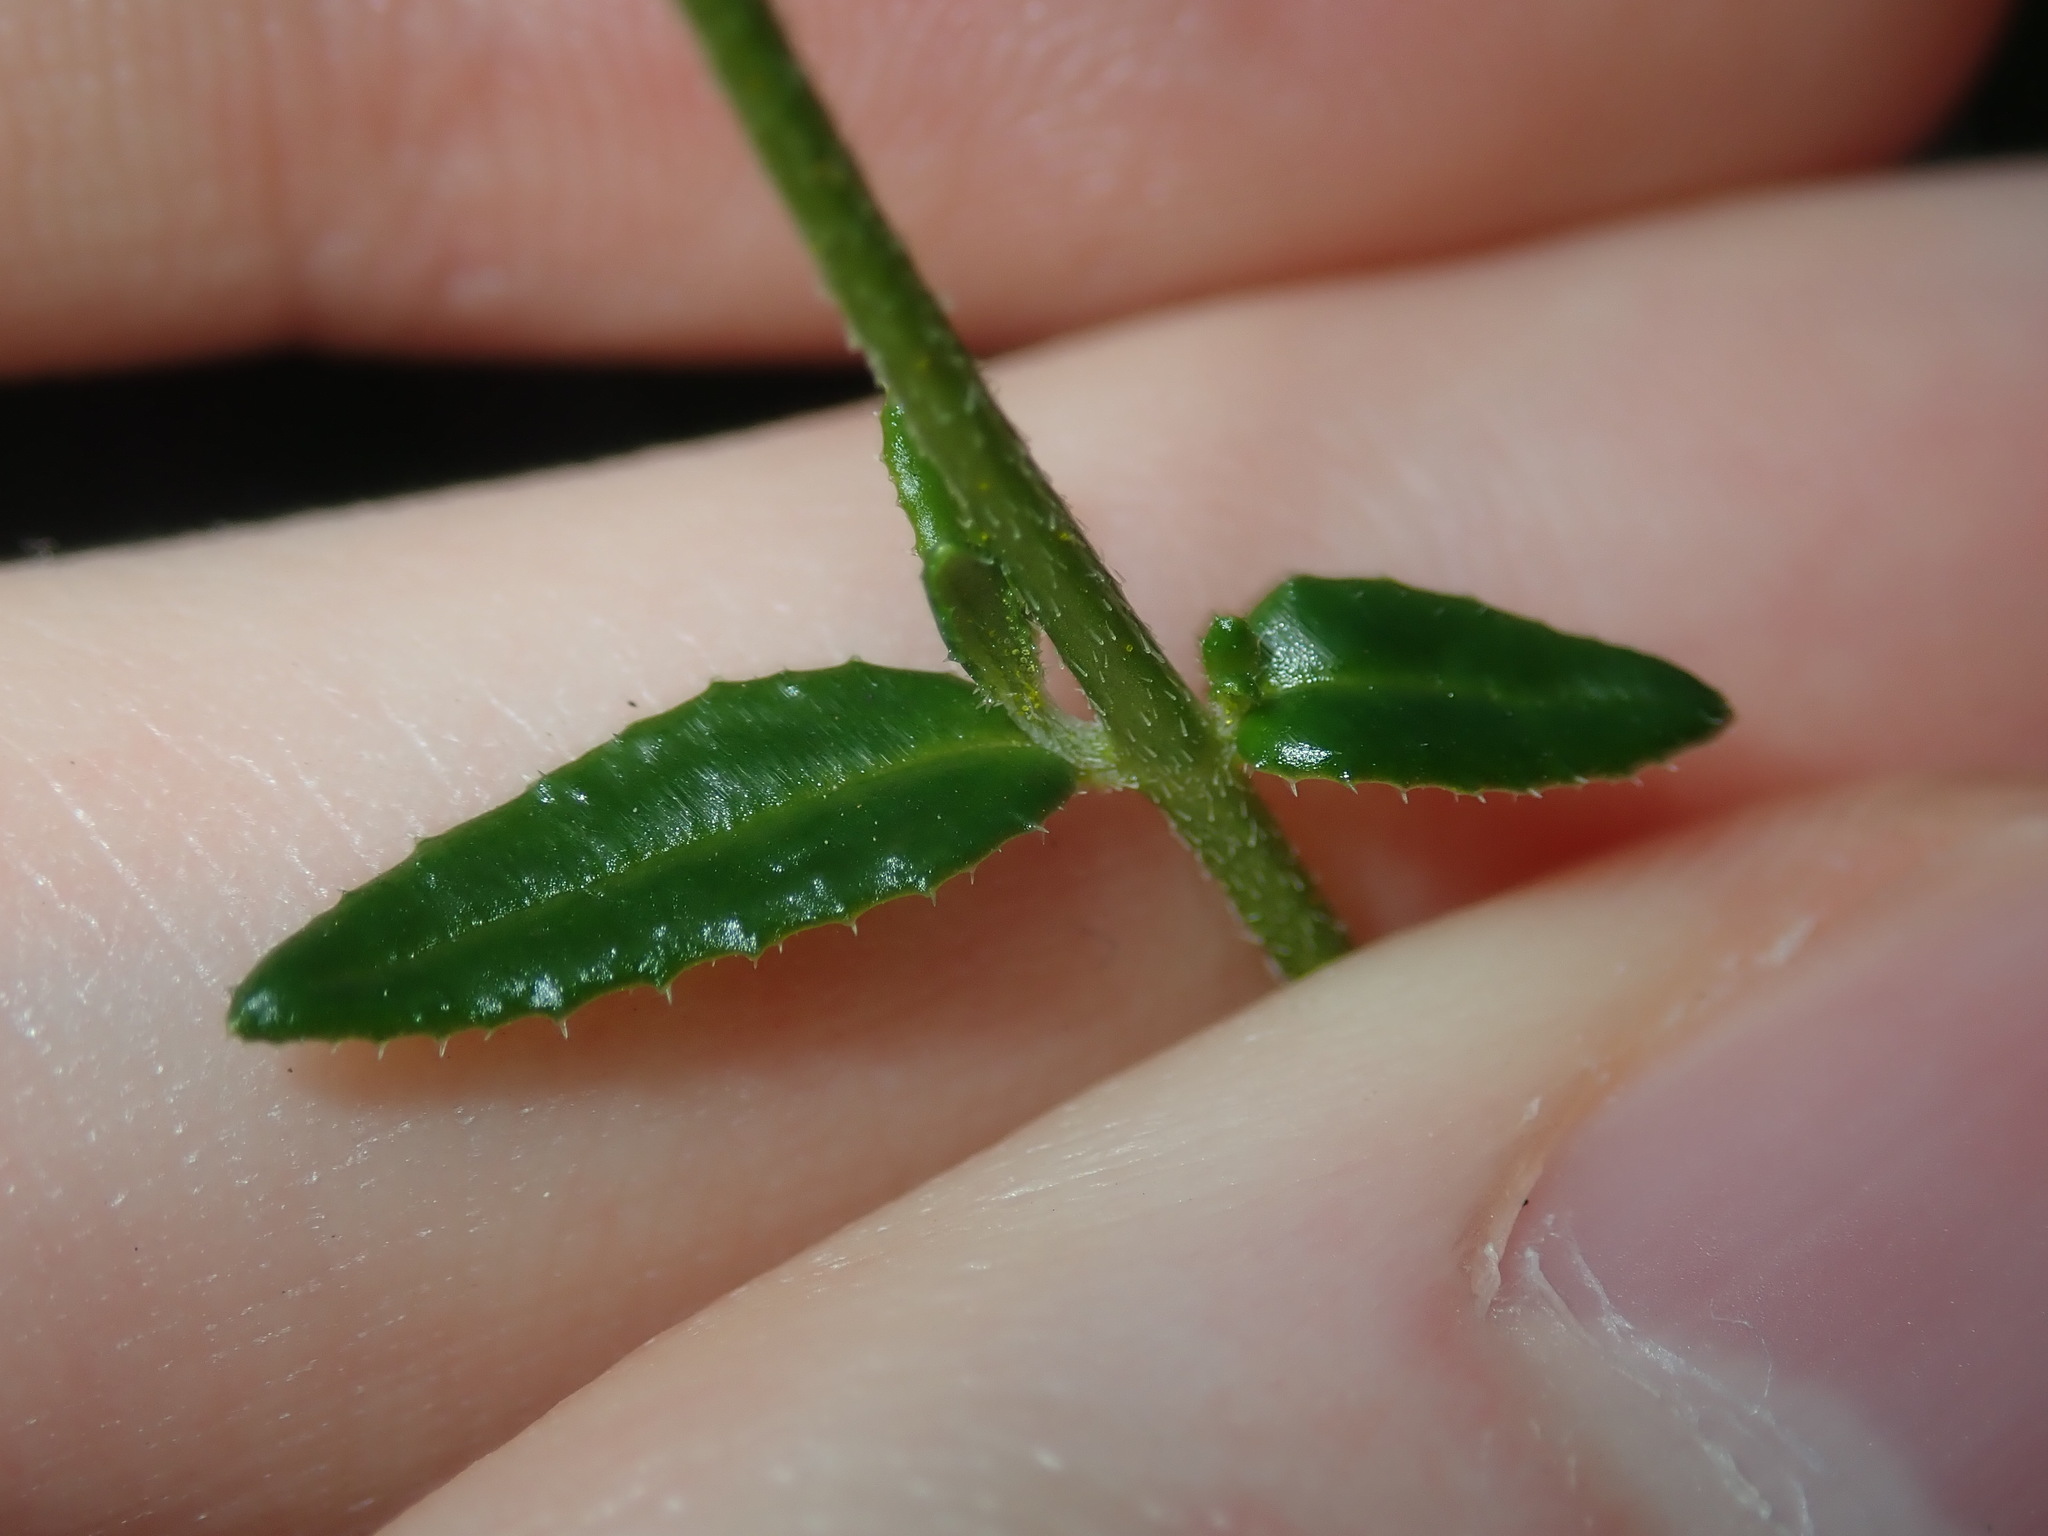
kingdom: Plantae
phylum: Tracheophyta
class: Magnoliopsida
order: Lamiales
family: Lamiaceae
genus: Prostanthera
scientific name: Prostanthera denticulata
